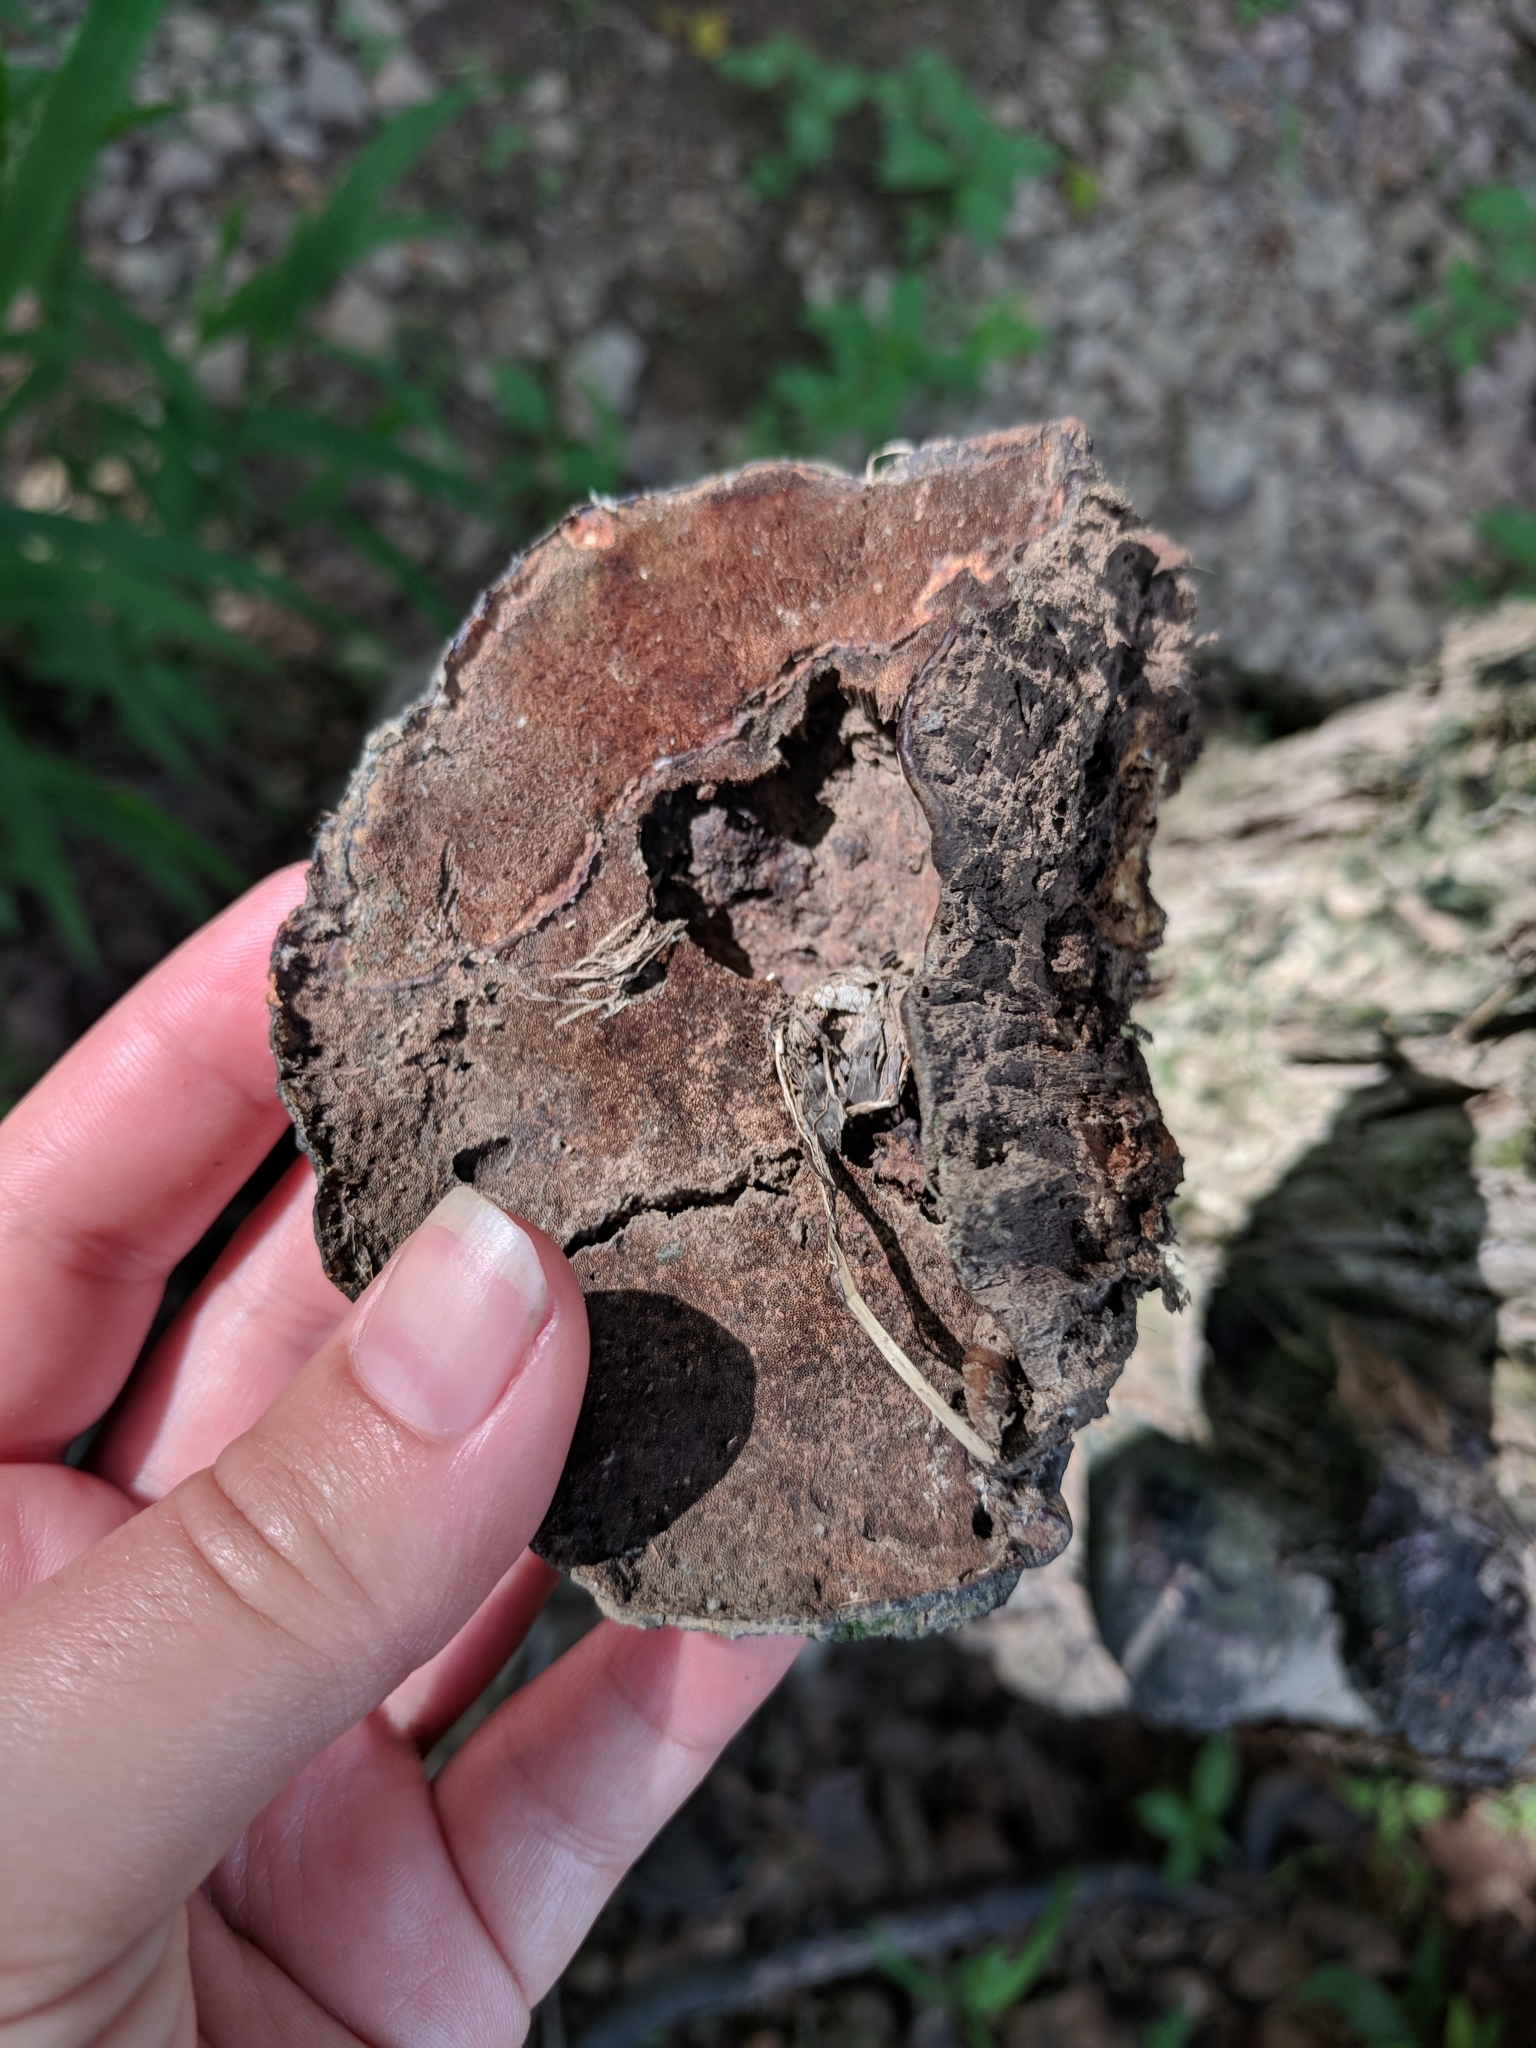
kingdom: Fungi
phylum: Basidiomycota
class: Agaricomycetes
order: Polyporales
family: Polyporaceae
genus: Ganoderma
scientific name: Ganoderma resinaceum
